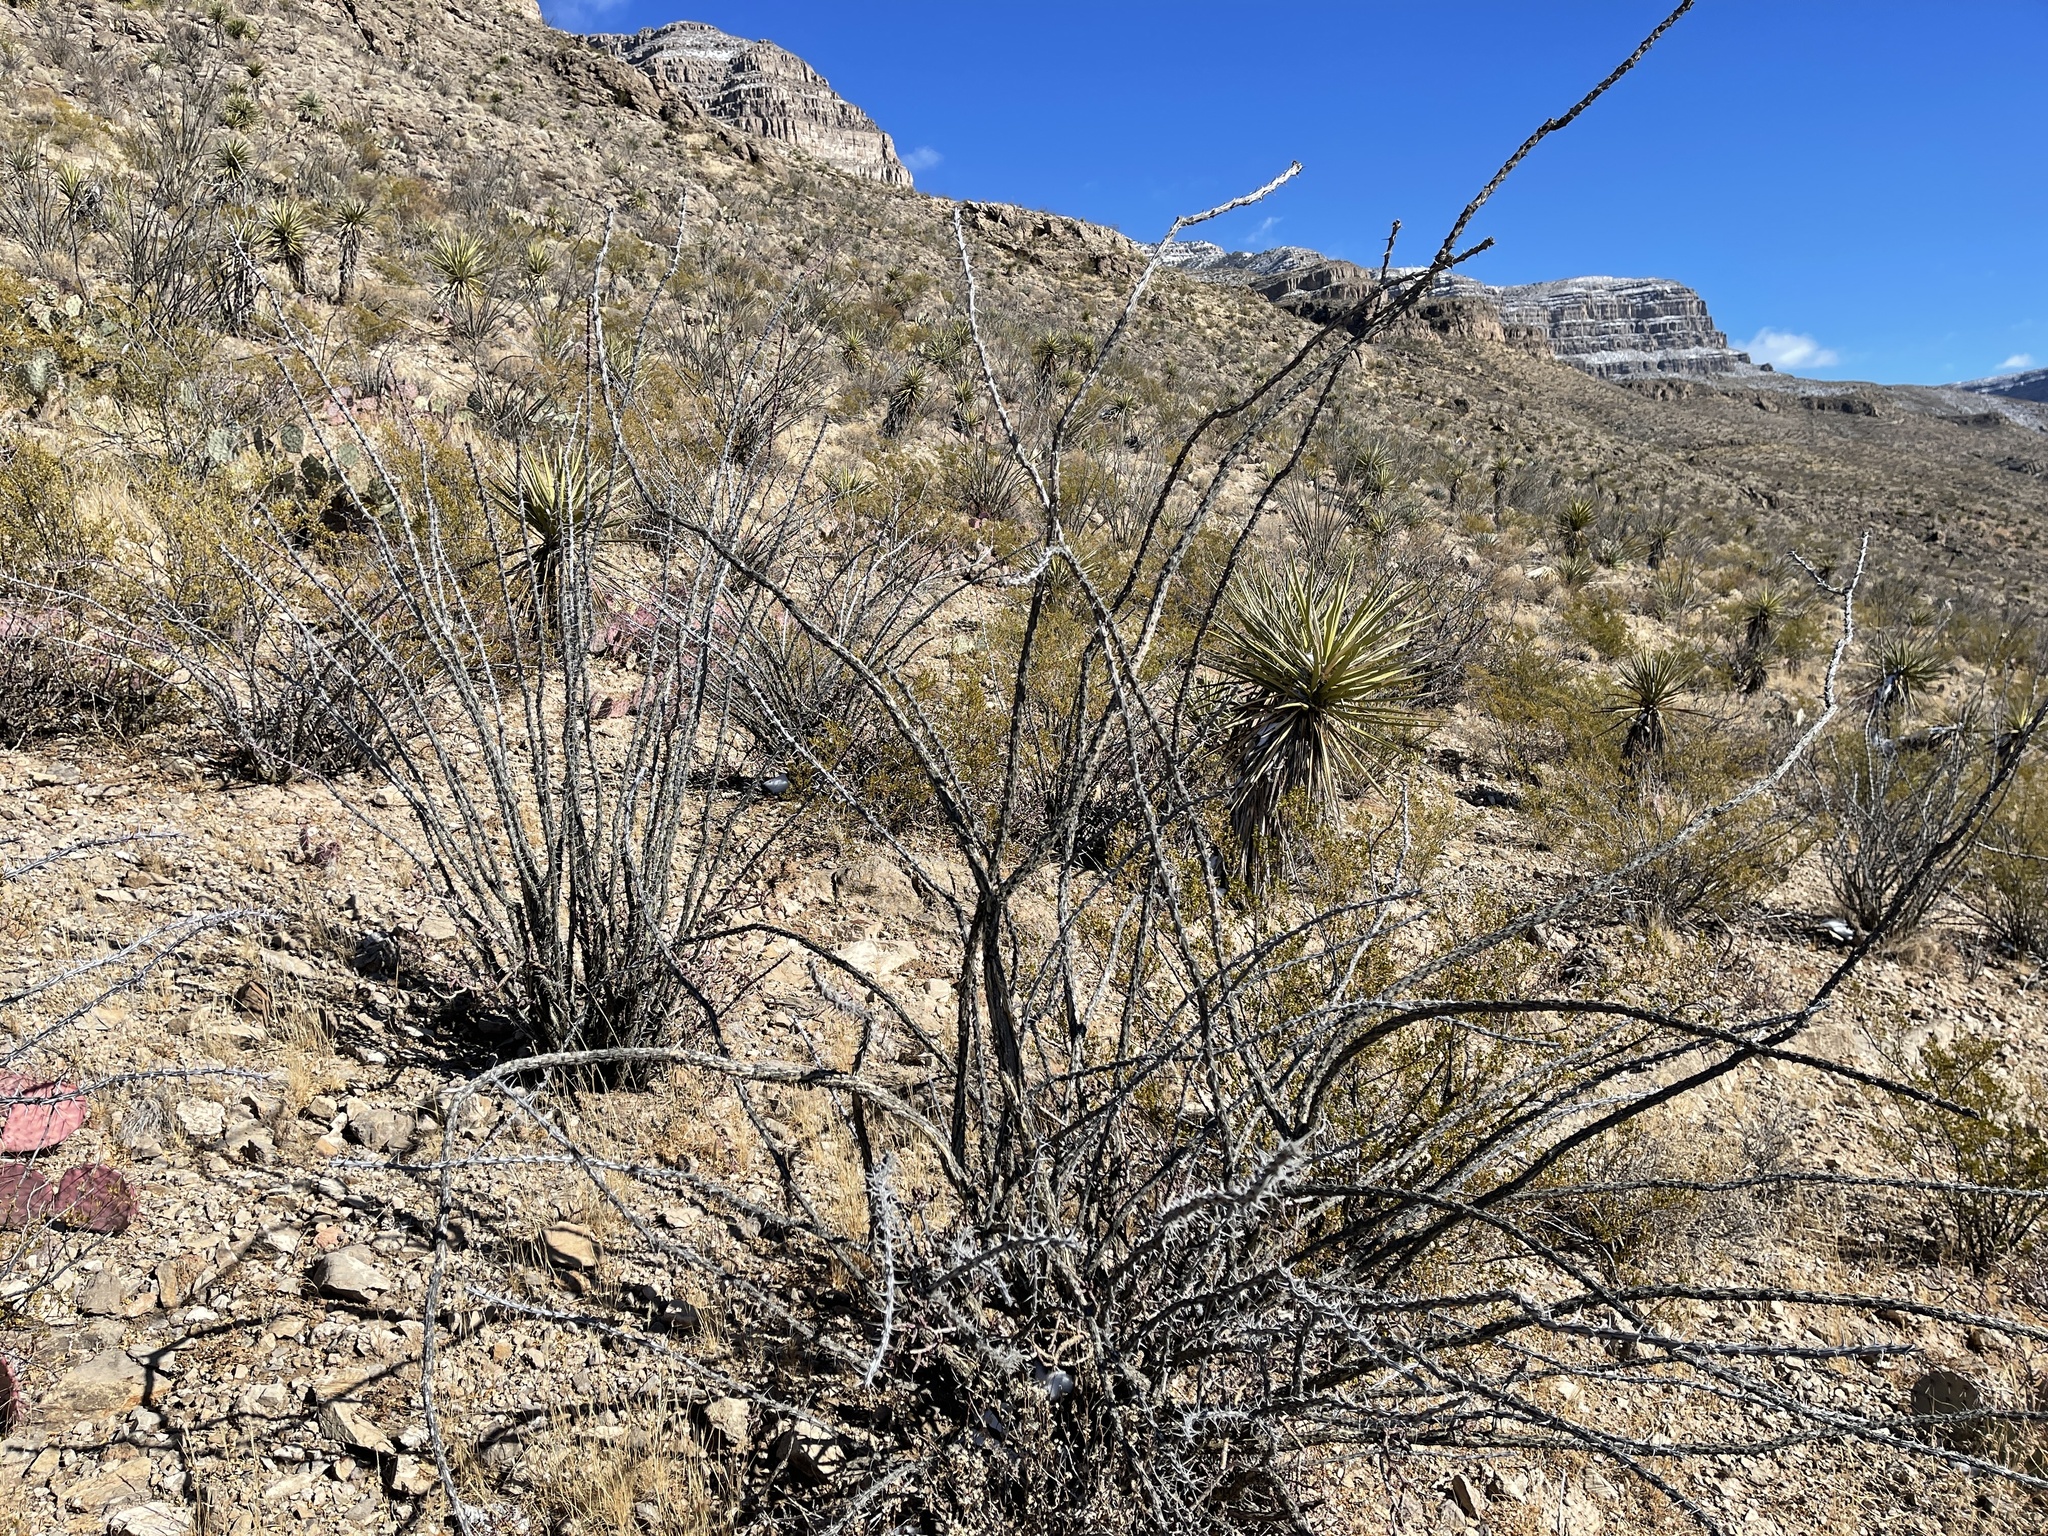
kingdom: Plantae
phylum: Tracheophyta
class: Magnoliopsida
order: Ericales
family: Fouquieriaceae
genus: Fouquieria
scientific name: Fouquieria splendens
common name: Vine-cactus
